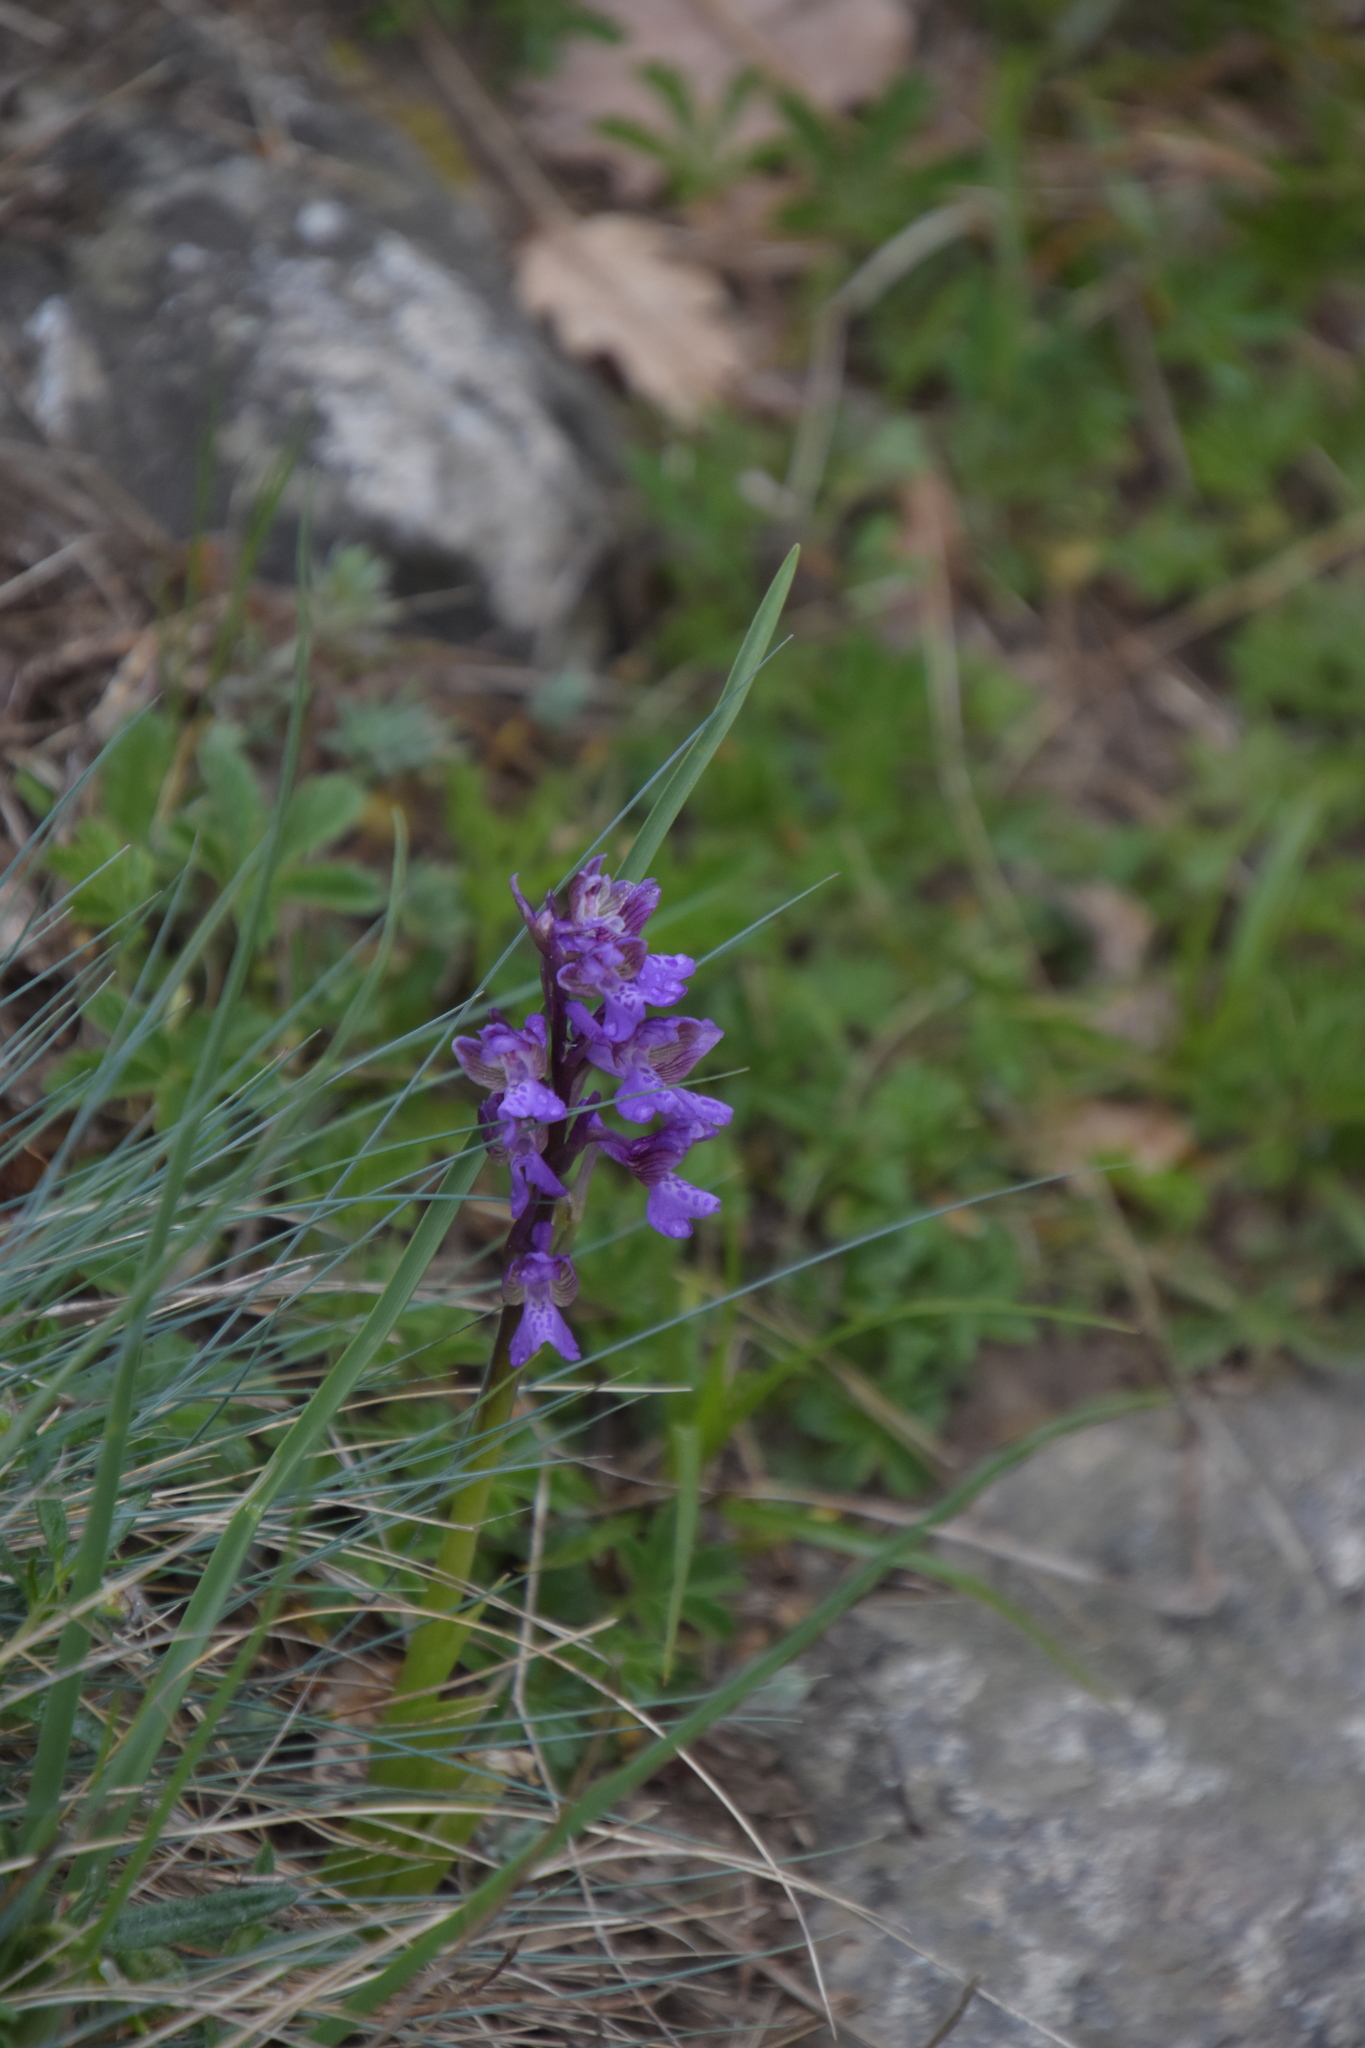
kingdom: Plantae
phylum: Tracheophyta
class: Liliopsida
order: Asparagales
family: Orchidaceae
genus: Anacamptis
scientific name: Anacamptis morio
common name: Green-winged orchid
